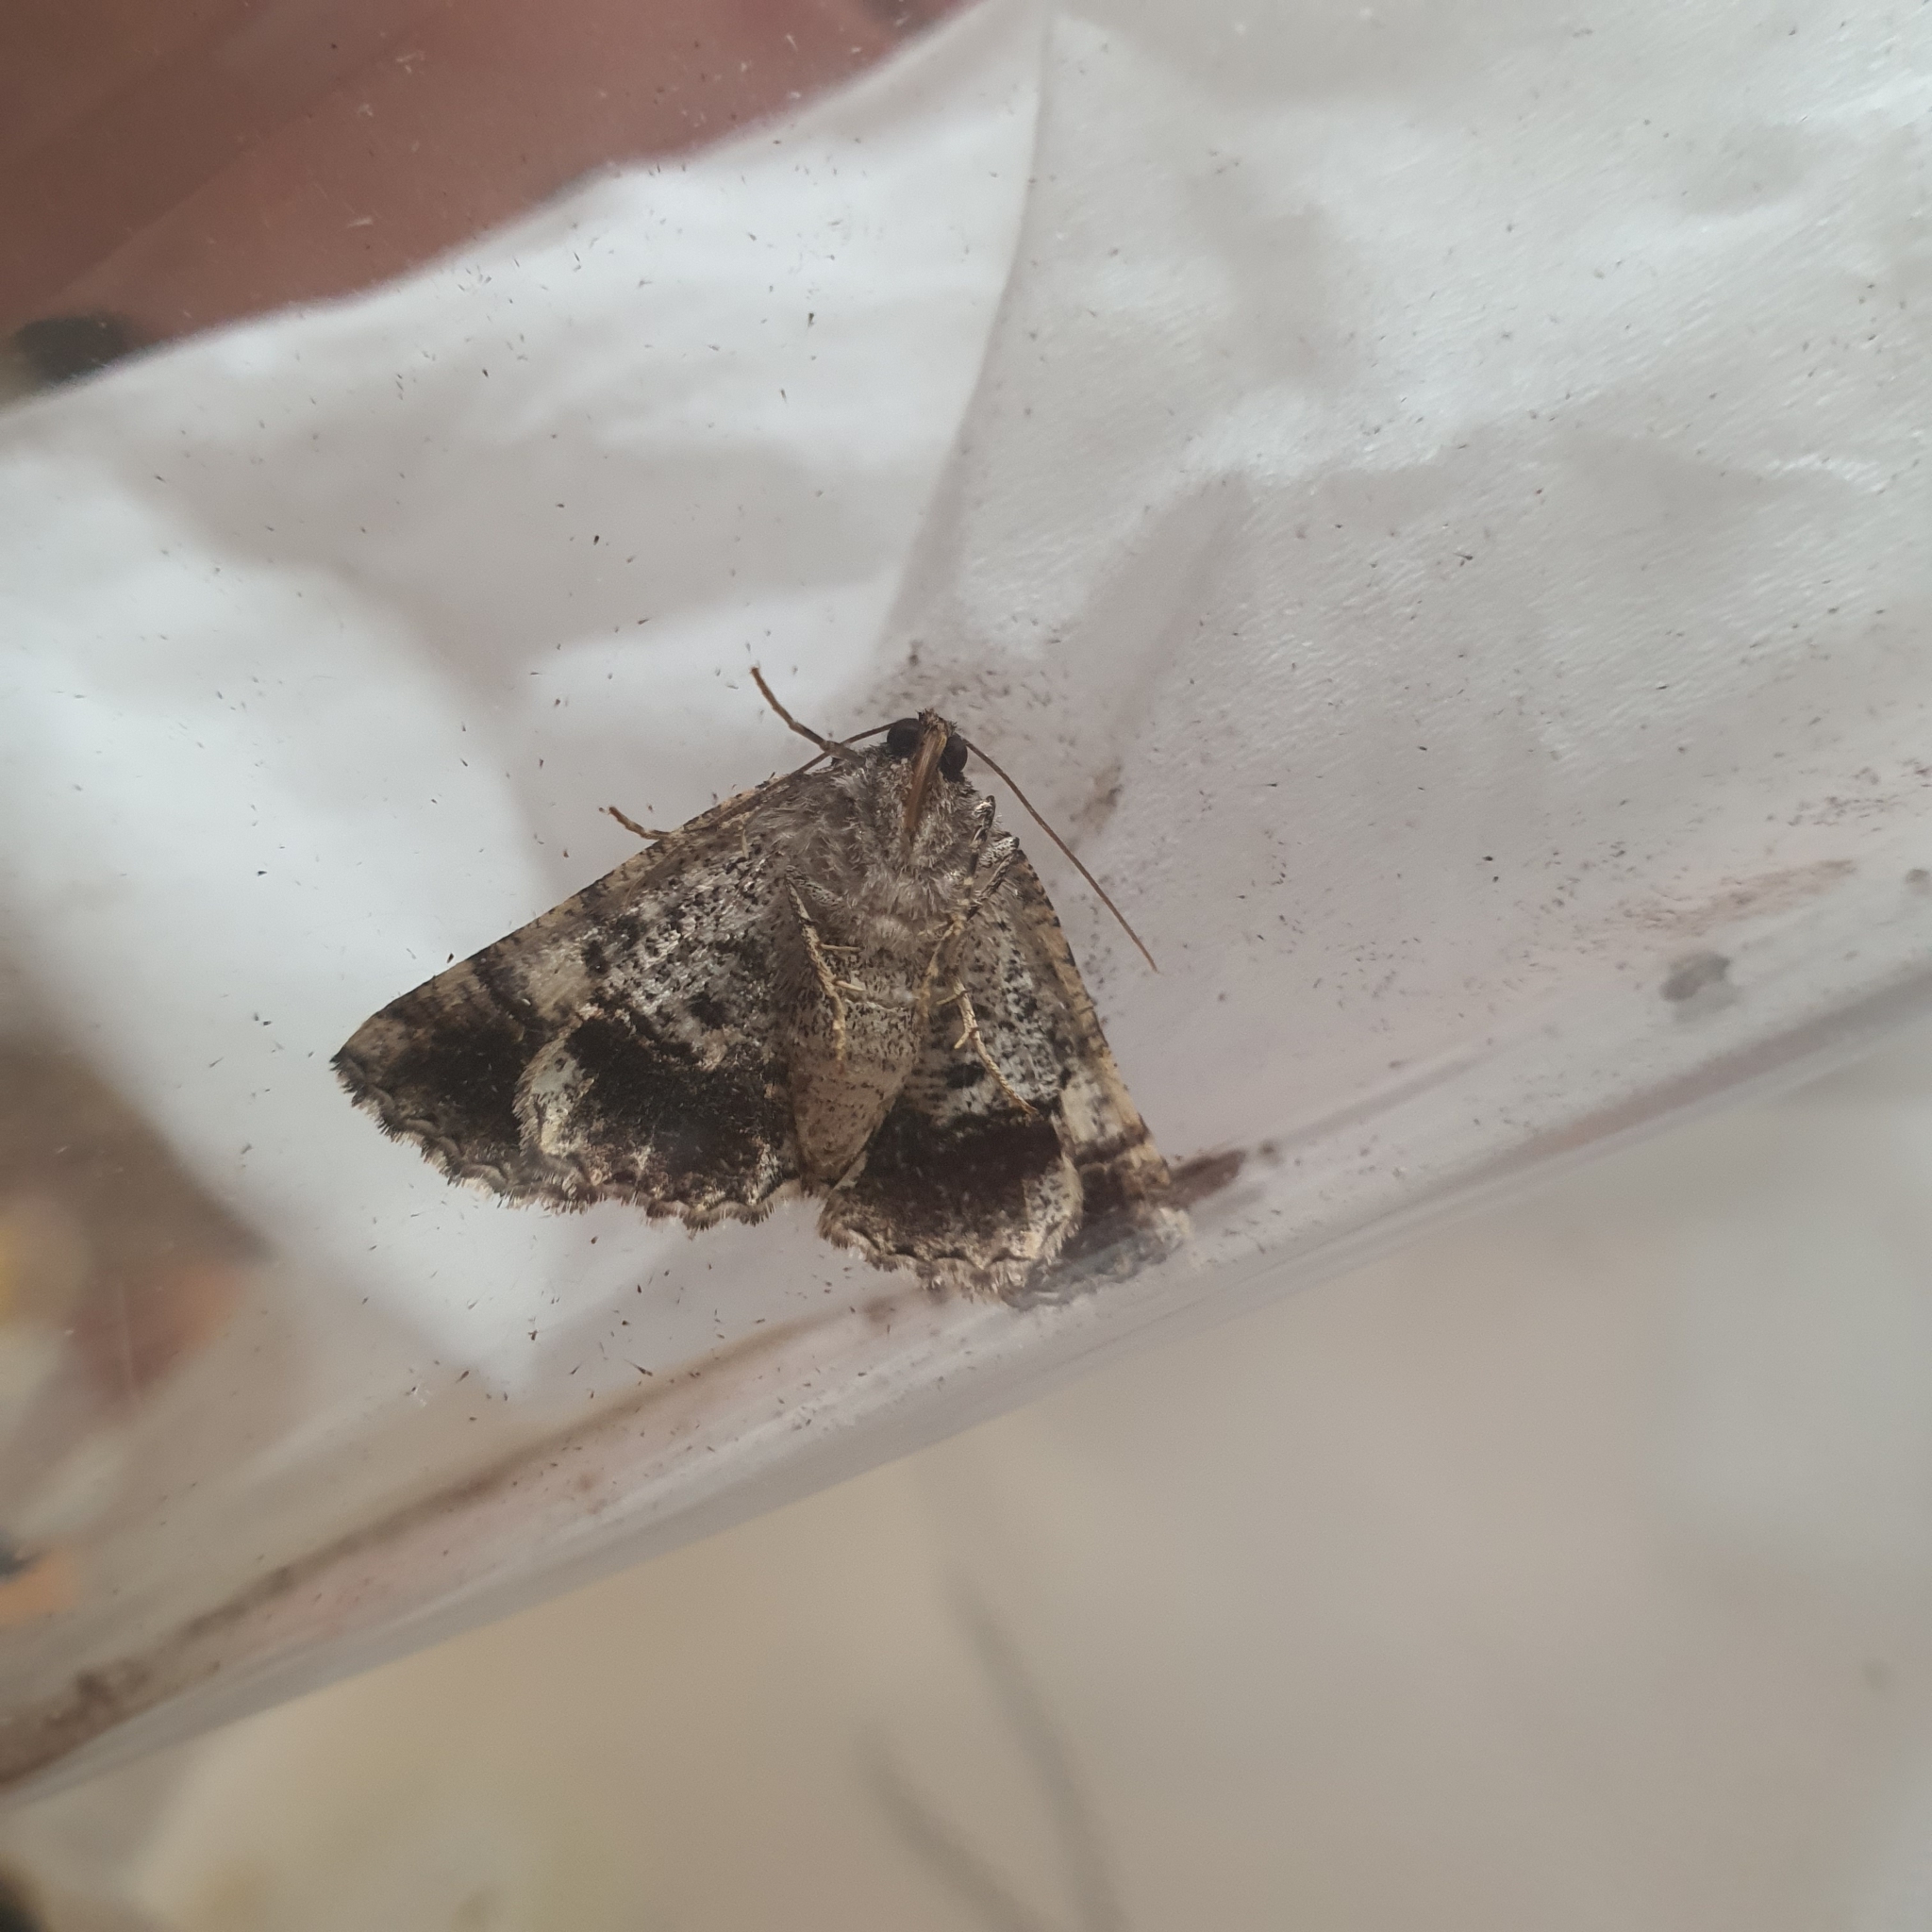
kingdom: Animalia
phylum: Arthropoda
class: Insecta
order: Lepidoptera
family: Geometridae
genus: Gastrina
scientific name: Gastrina cristaria
